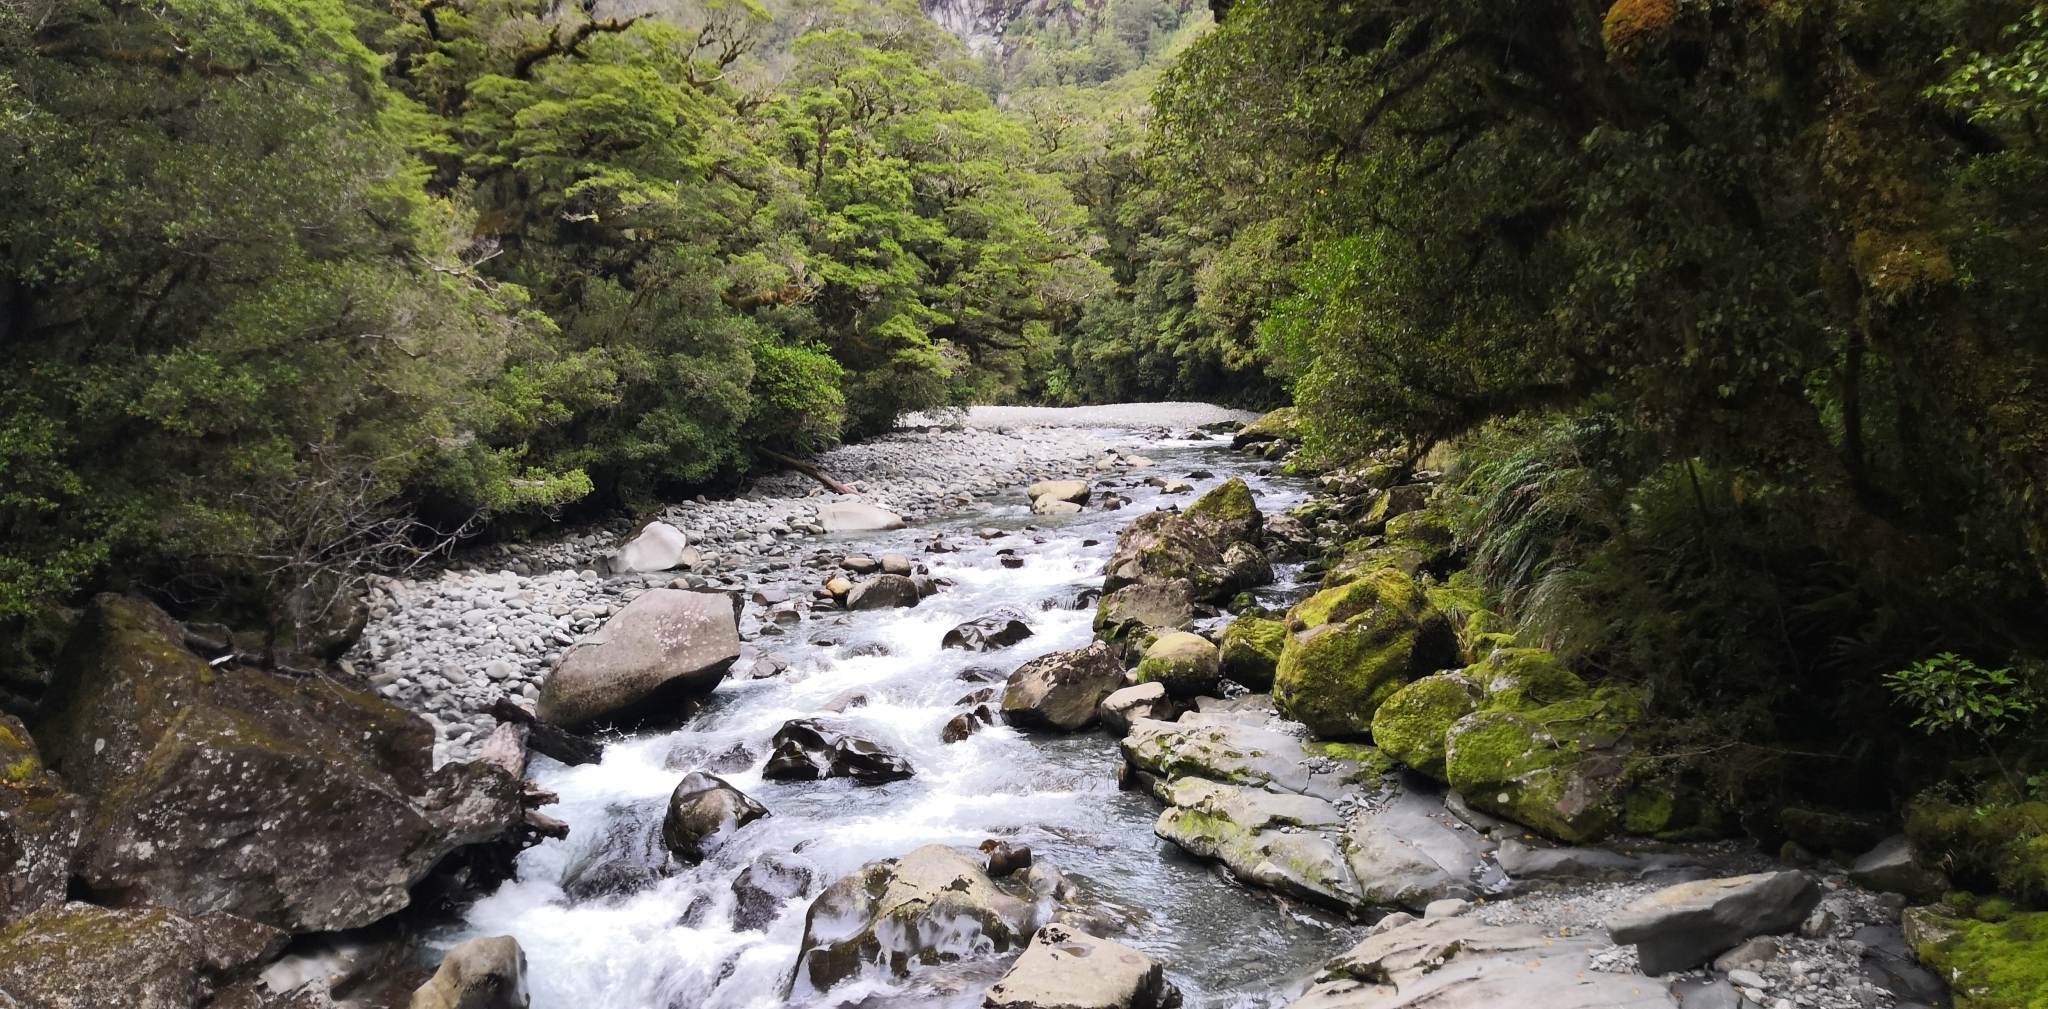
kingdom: Animalia
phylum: Chordata
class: Aves
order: Anseriformes
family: Anatidae
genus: Hymenolaimus
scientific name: Hymenolaimus malacorhynchos
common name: Blue duck
